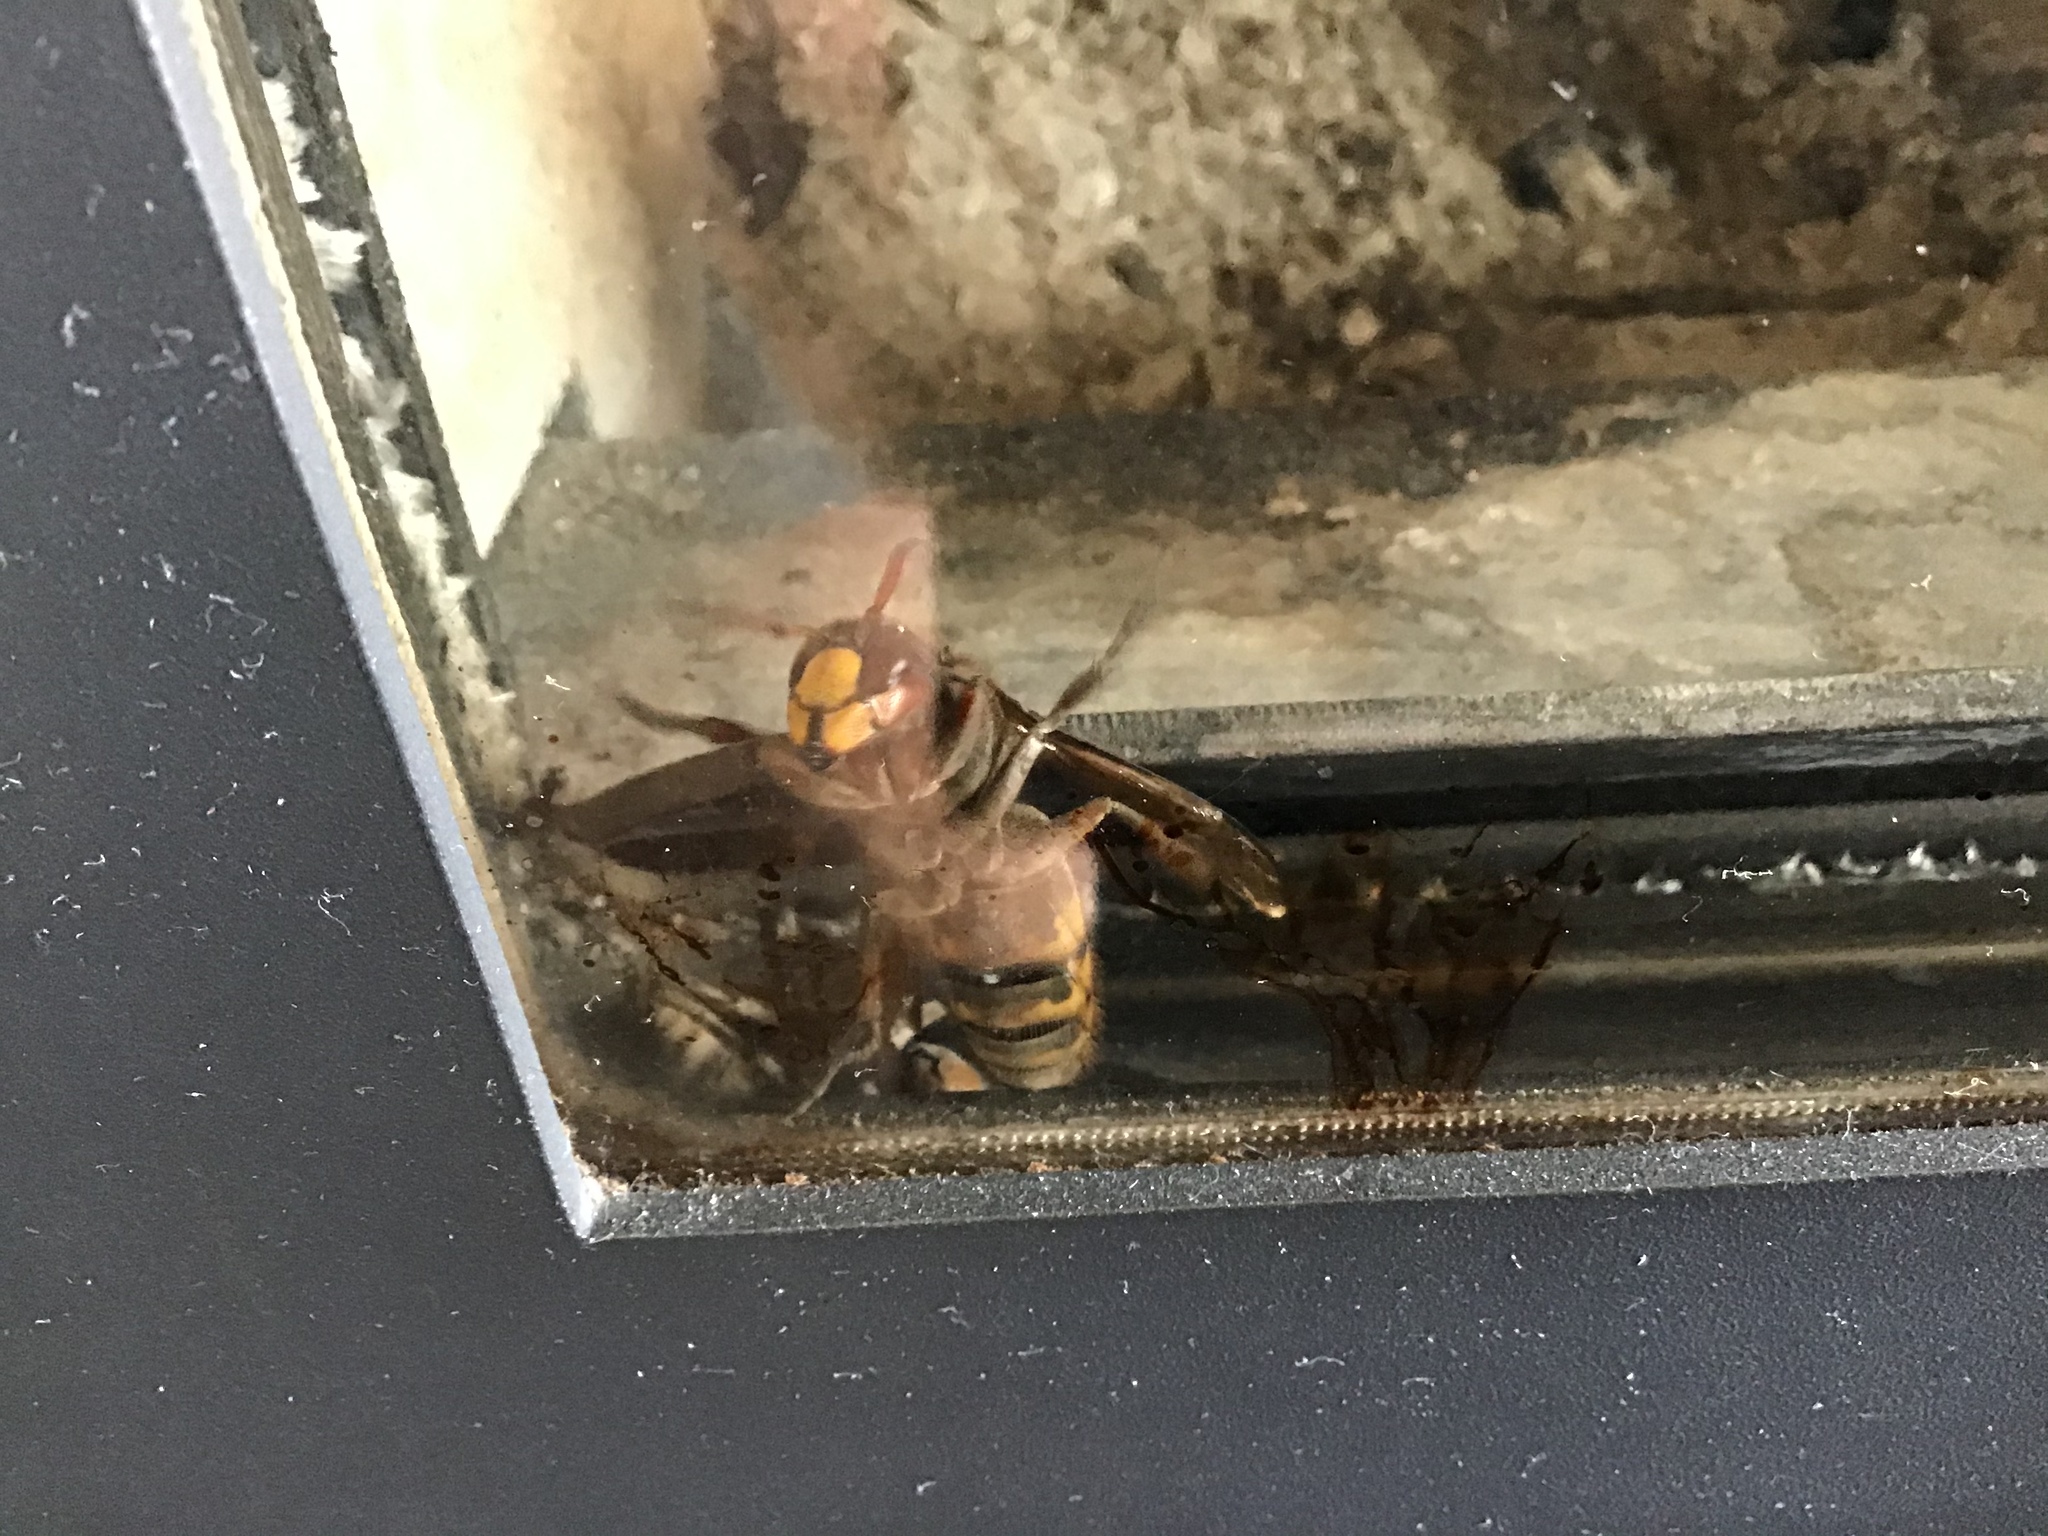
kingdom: Animalia
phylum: Arthropoda
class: Insecta
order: Hymenoptera
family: Vespidae
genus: Vespa
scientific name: Vespa crabro
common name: Hornet
